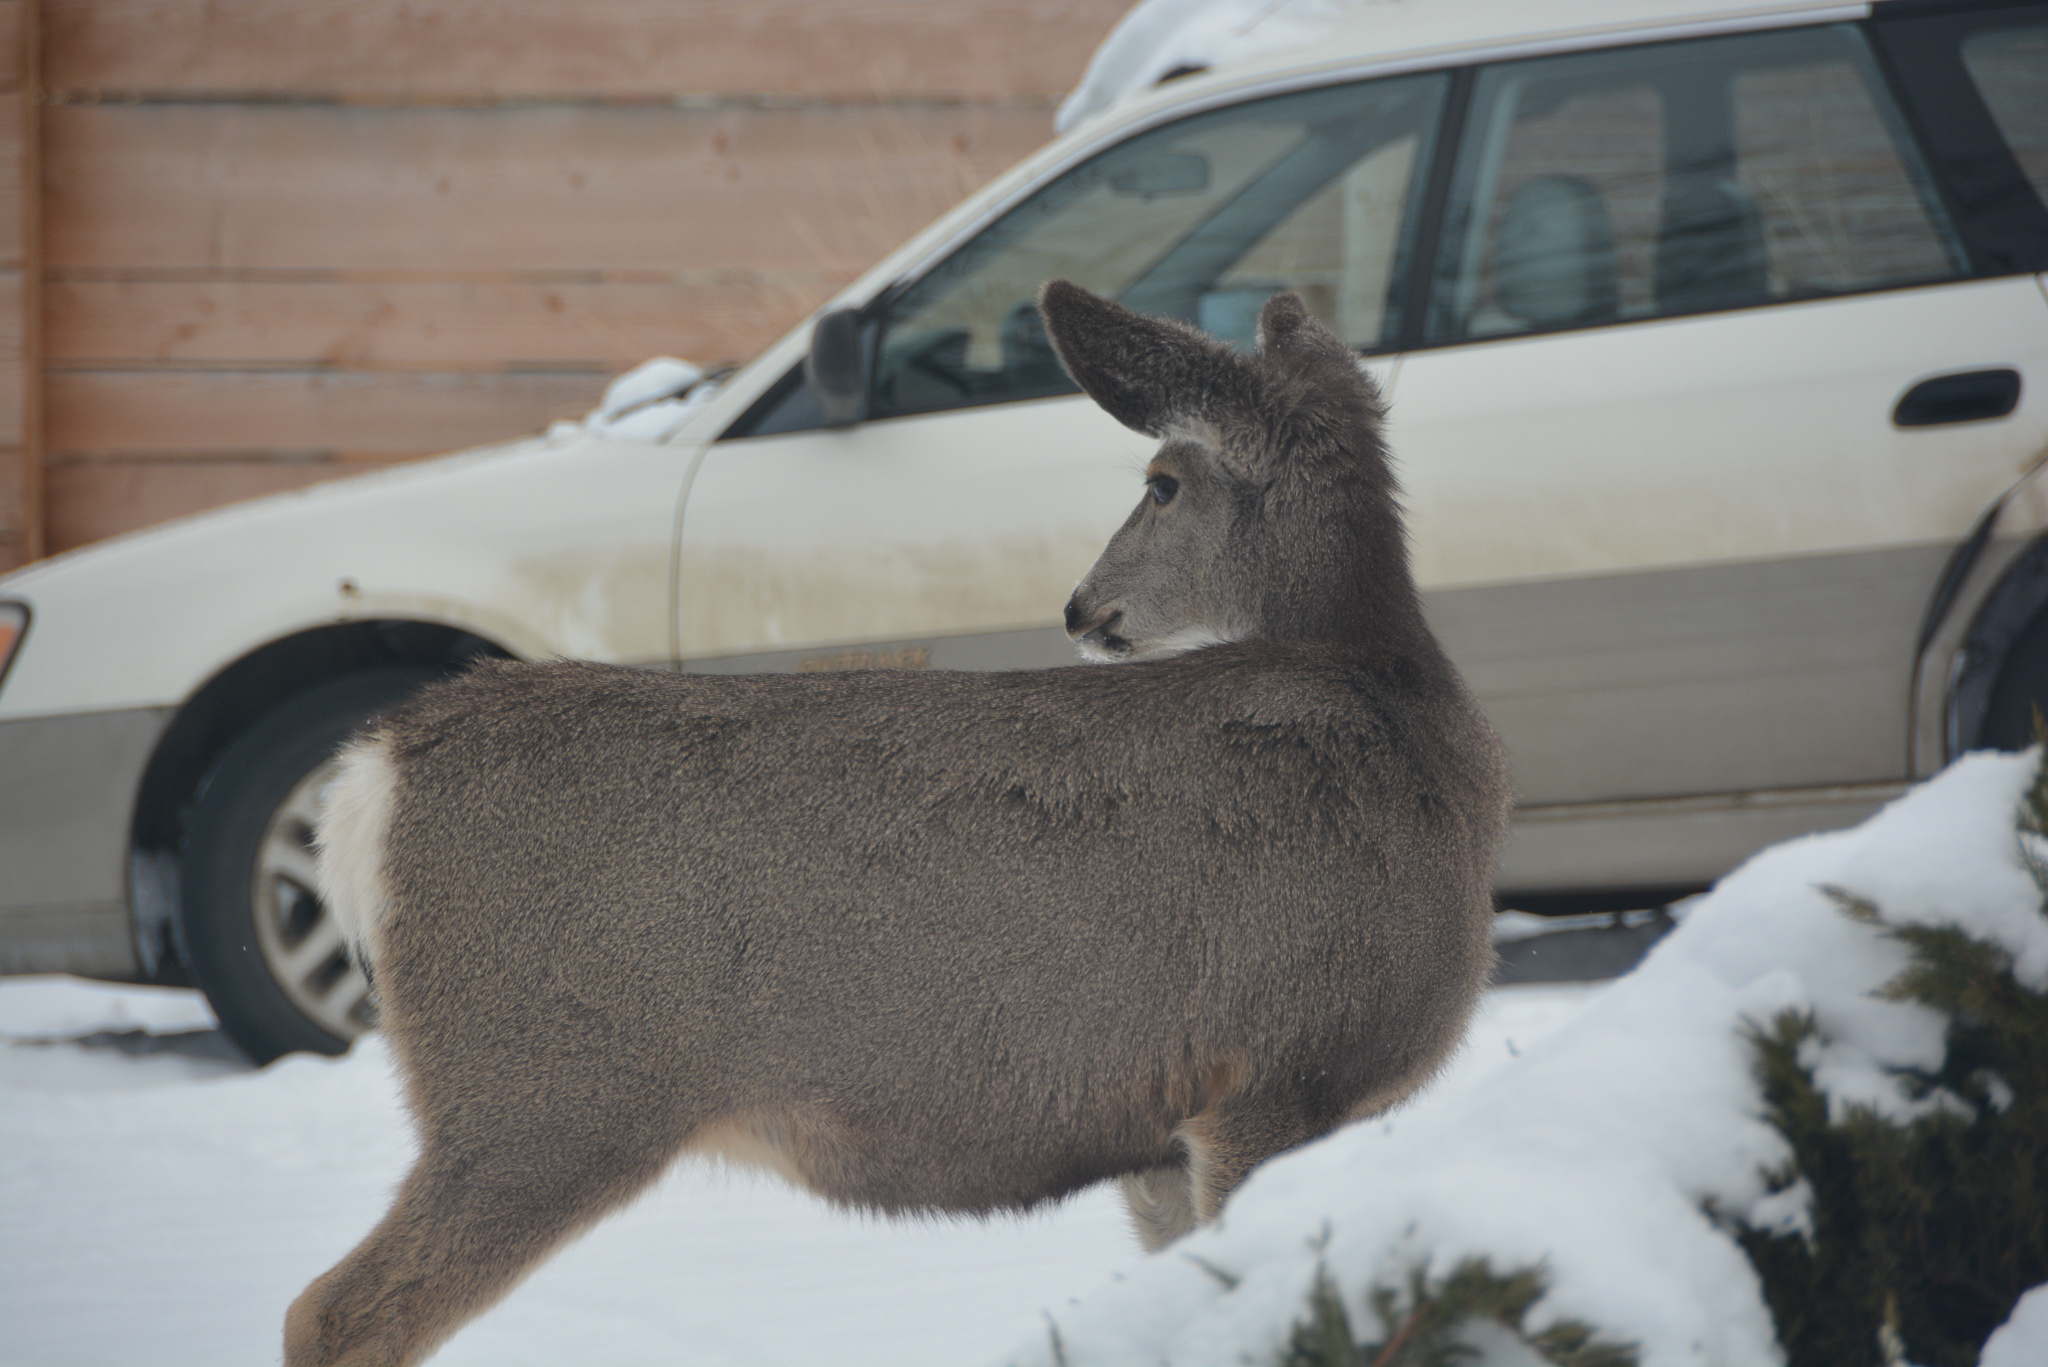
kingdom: Animalia
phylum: Chordata
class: Mammalia
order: Artiodactyla
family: Cervidae
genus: Odocoileus
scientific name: Odocoileus hemionus
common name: Mule deer
